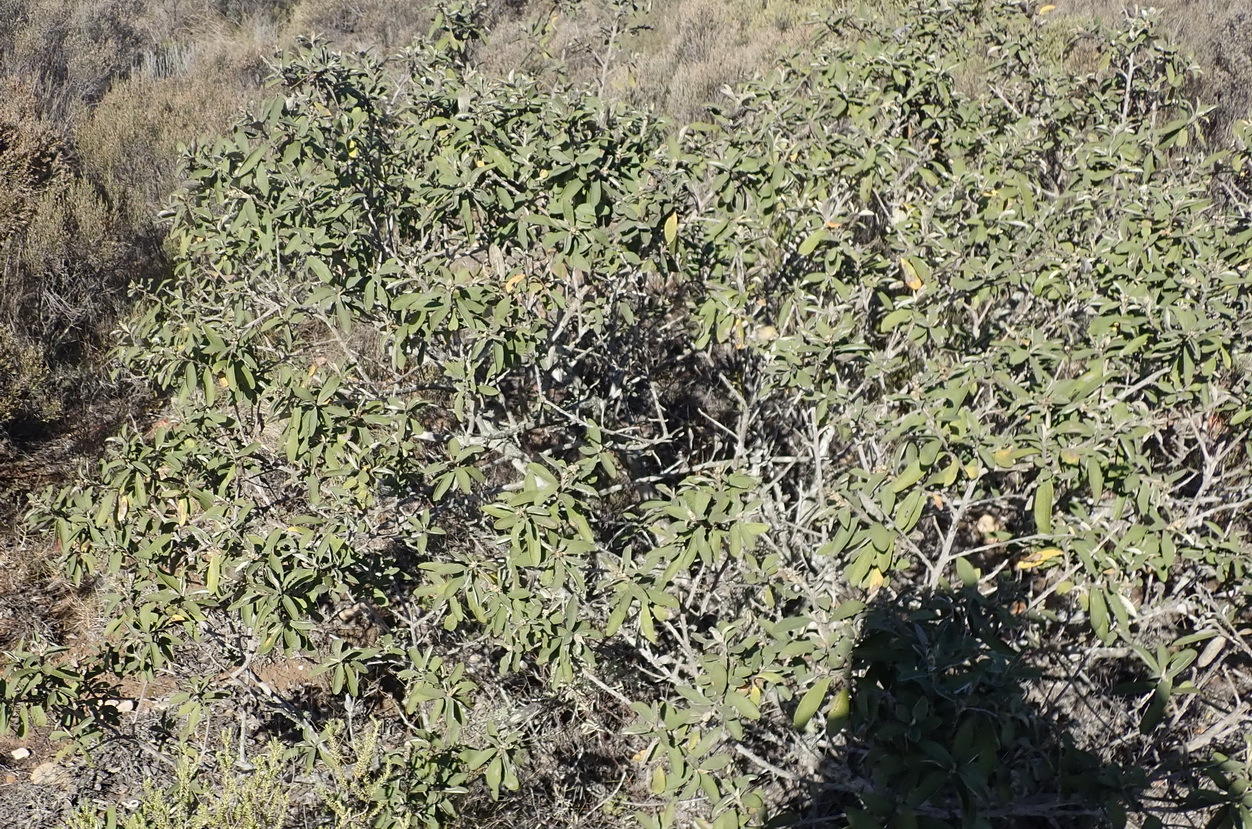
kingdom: Plantae
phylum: Tracheophyta
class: Magnoliopsida
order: Asterales
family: Asteraceae
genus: Tarchonanthus
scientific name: Tarchonanthus littoralis
